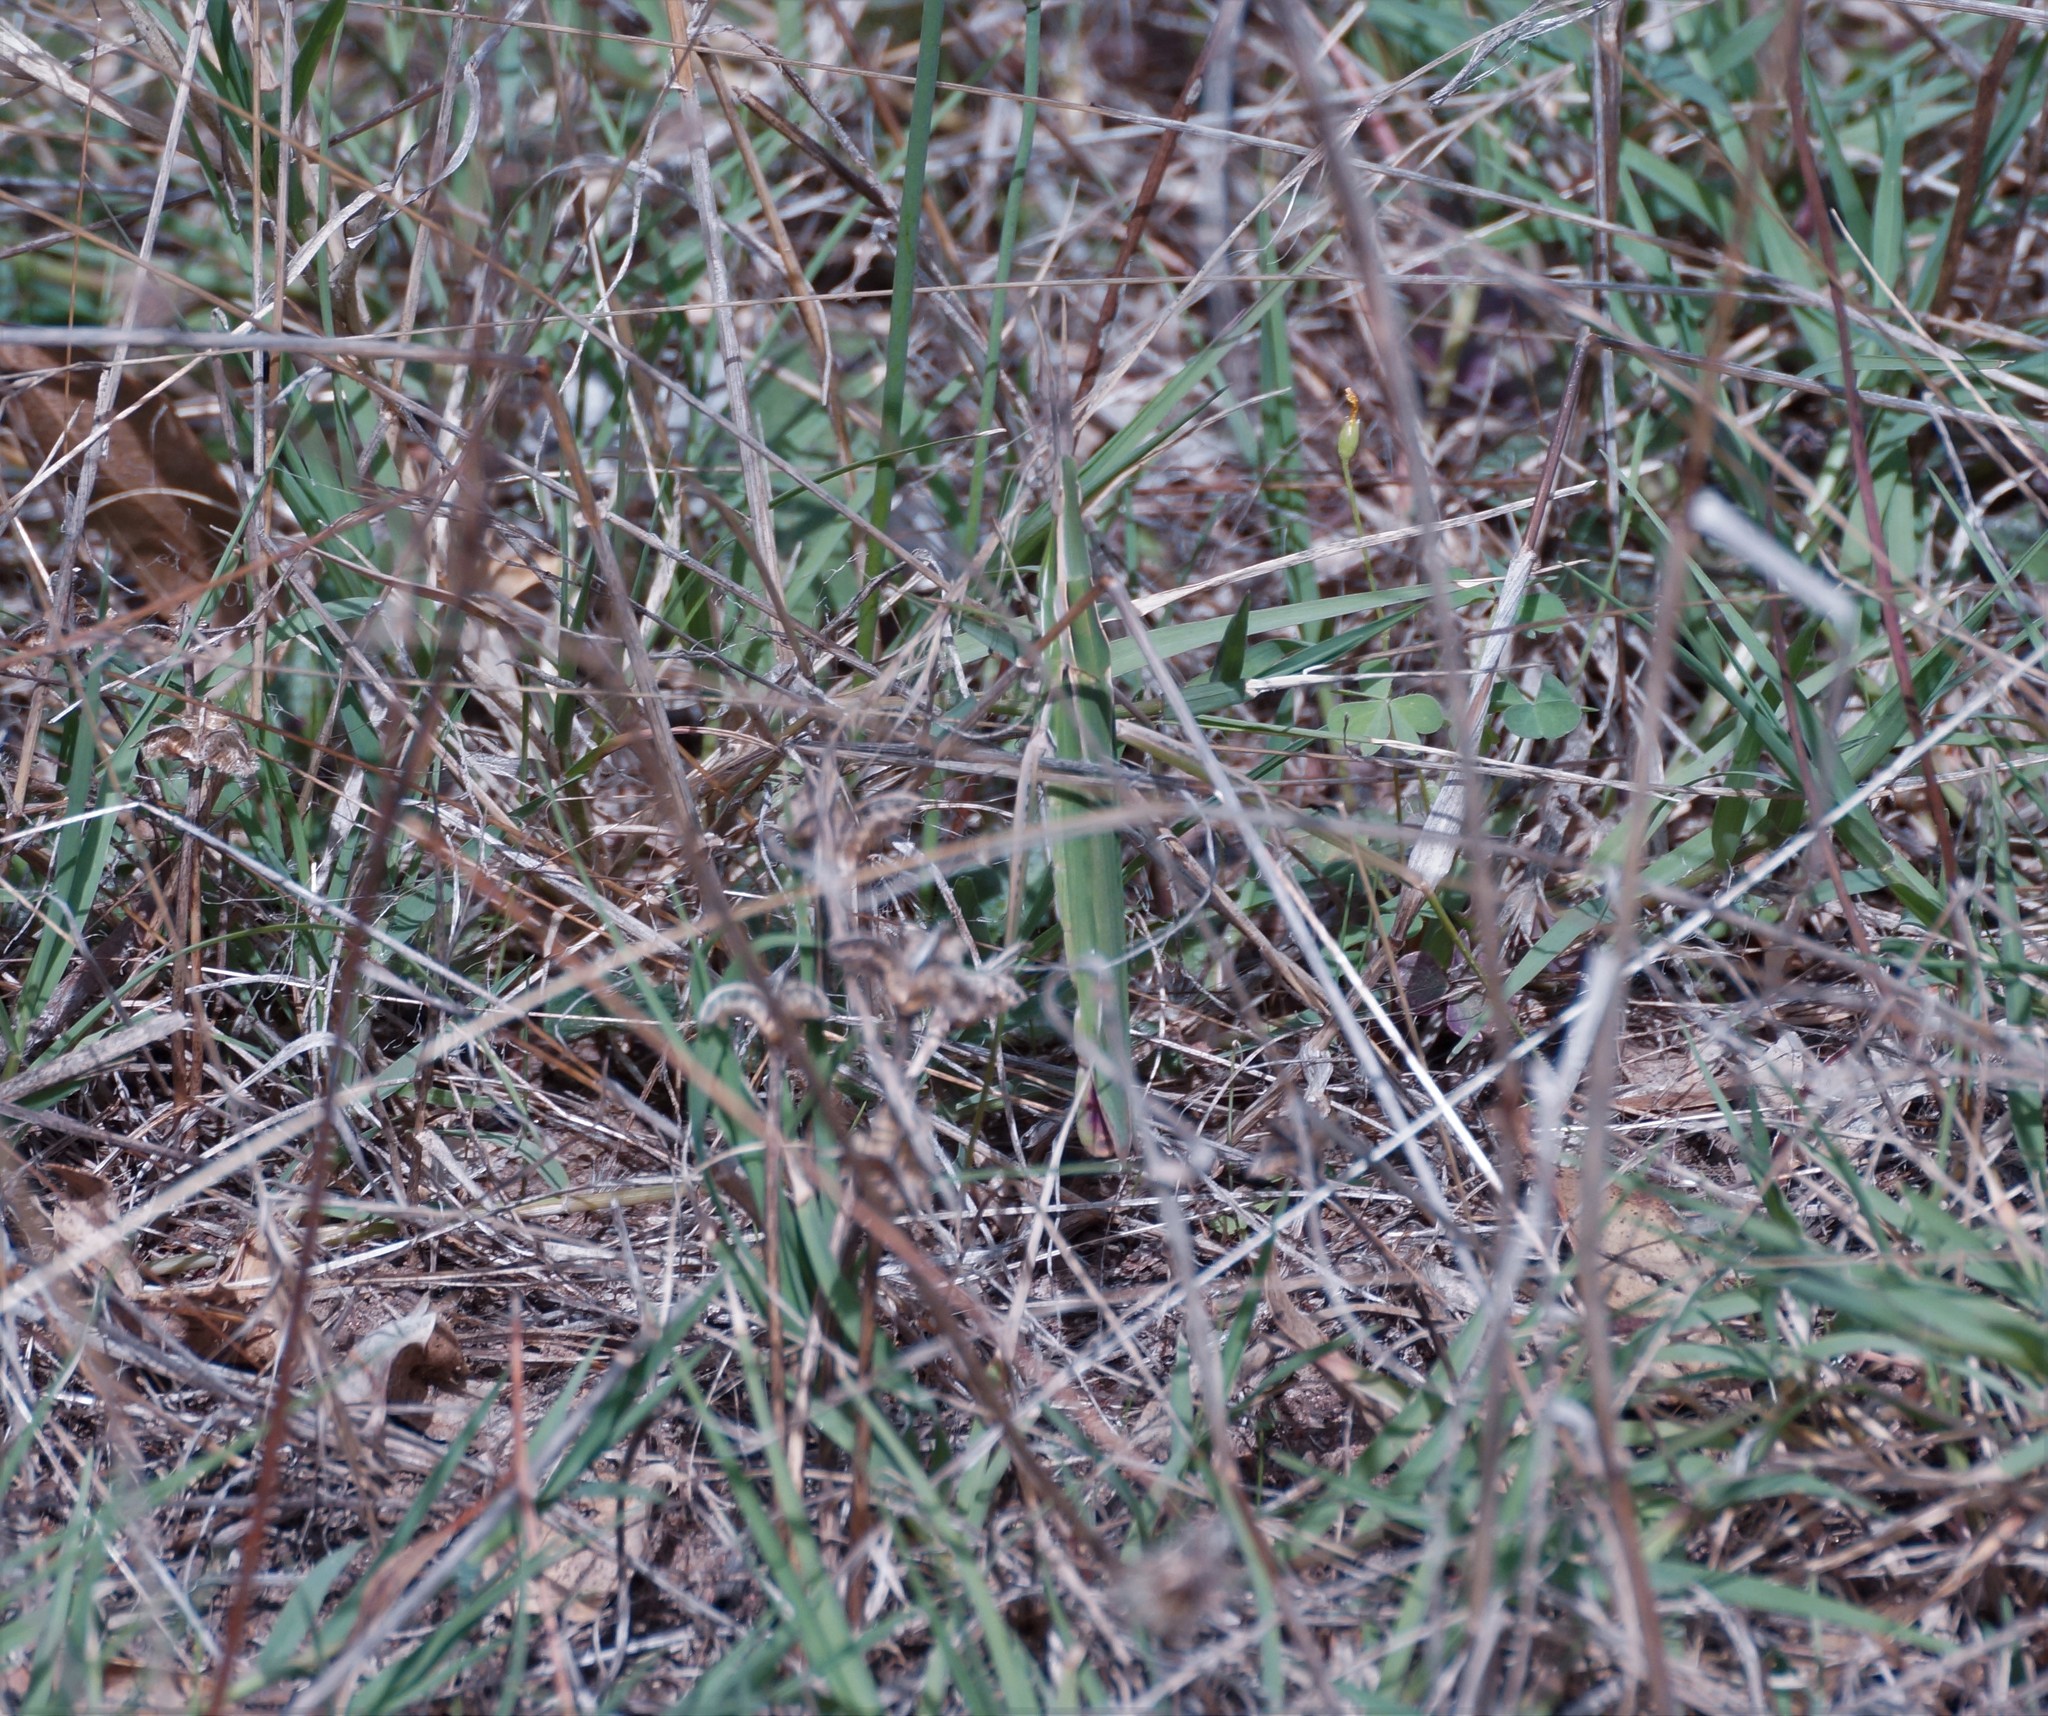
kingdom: Animalia
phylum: Arthropoda
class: Insecta
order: Orthoptera
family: Acrididae
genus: Acrida
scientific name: Acrida conica
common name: Giant green slantface
